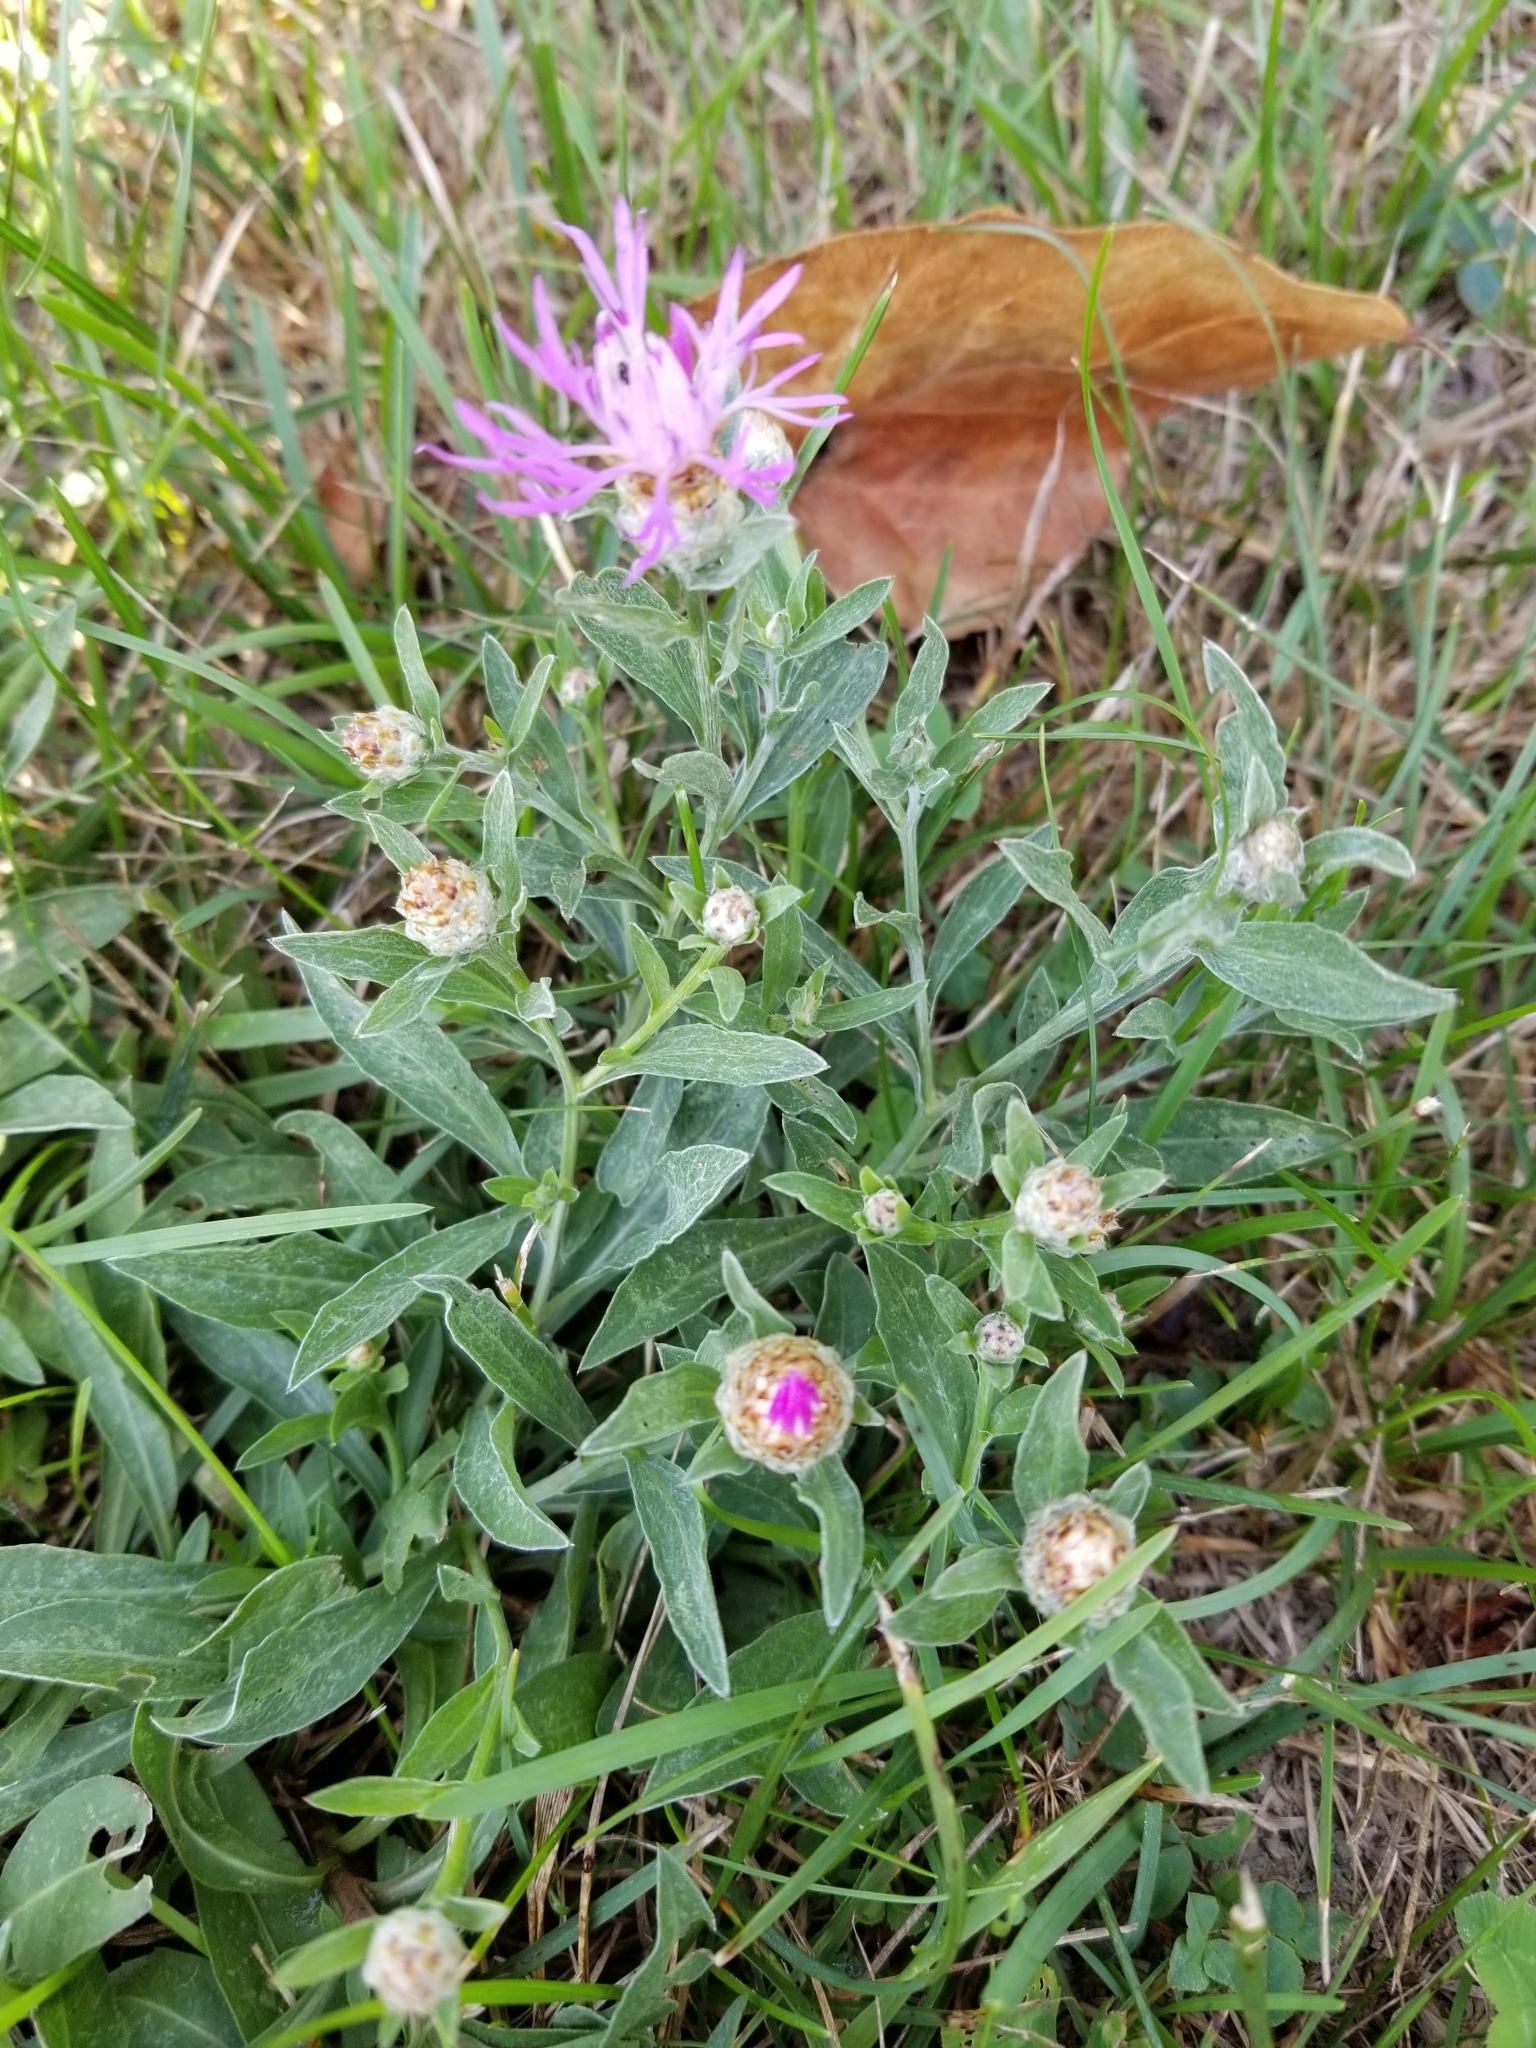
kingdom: Plantae
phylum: Tracheophyta
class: Magnoliopsida
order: Asterales
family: Asteraceae
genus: Centaurea
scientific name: Centaurea jacea
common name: Brown knapweed
